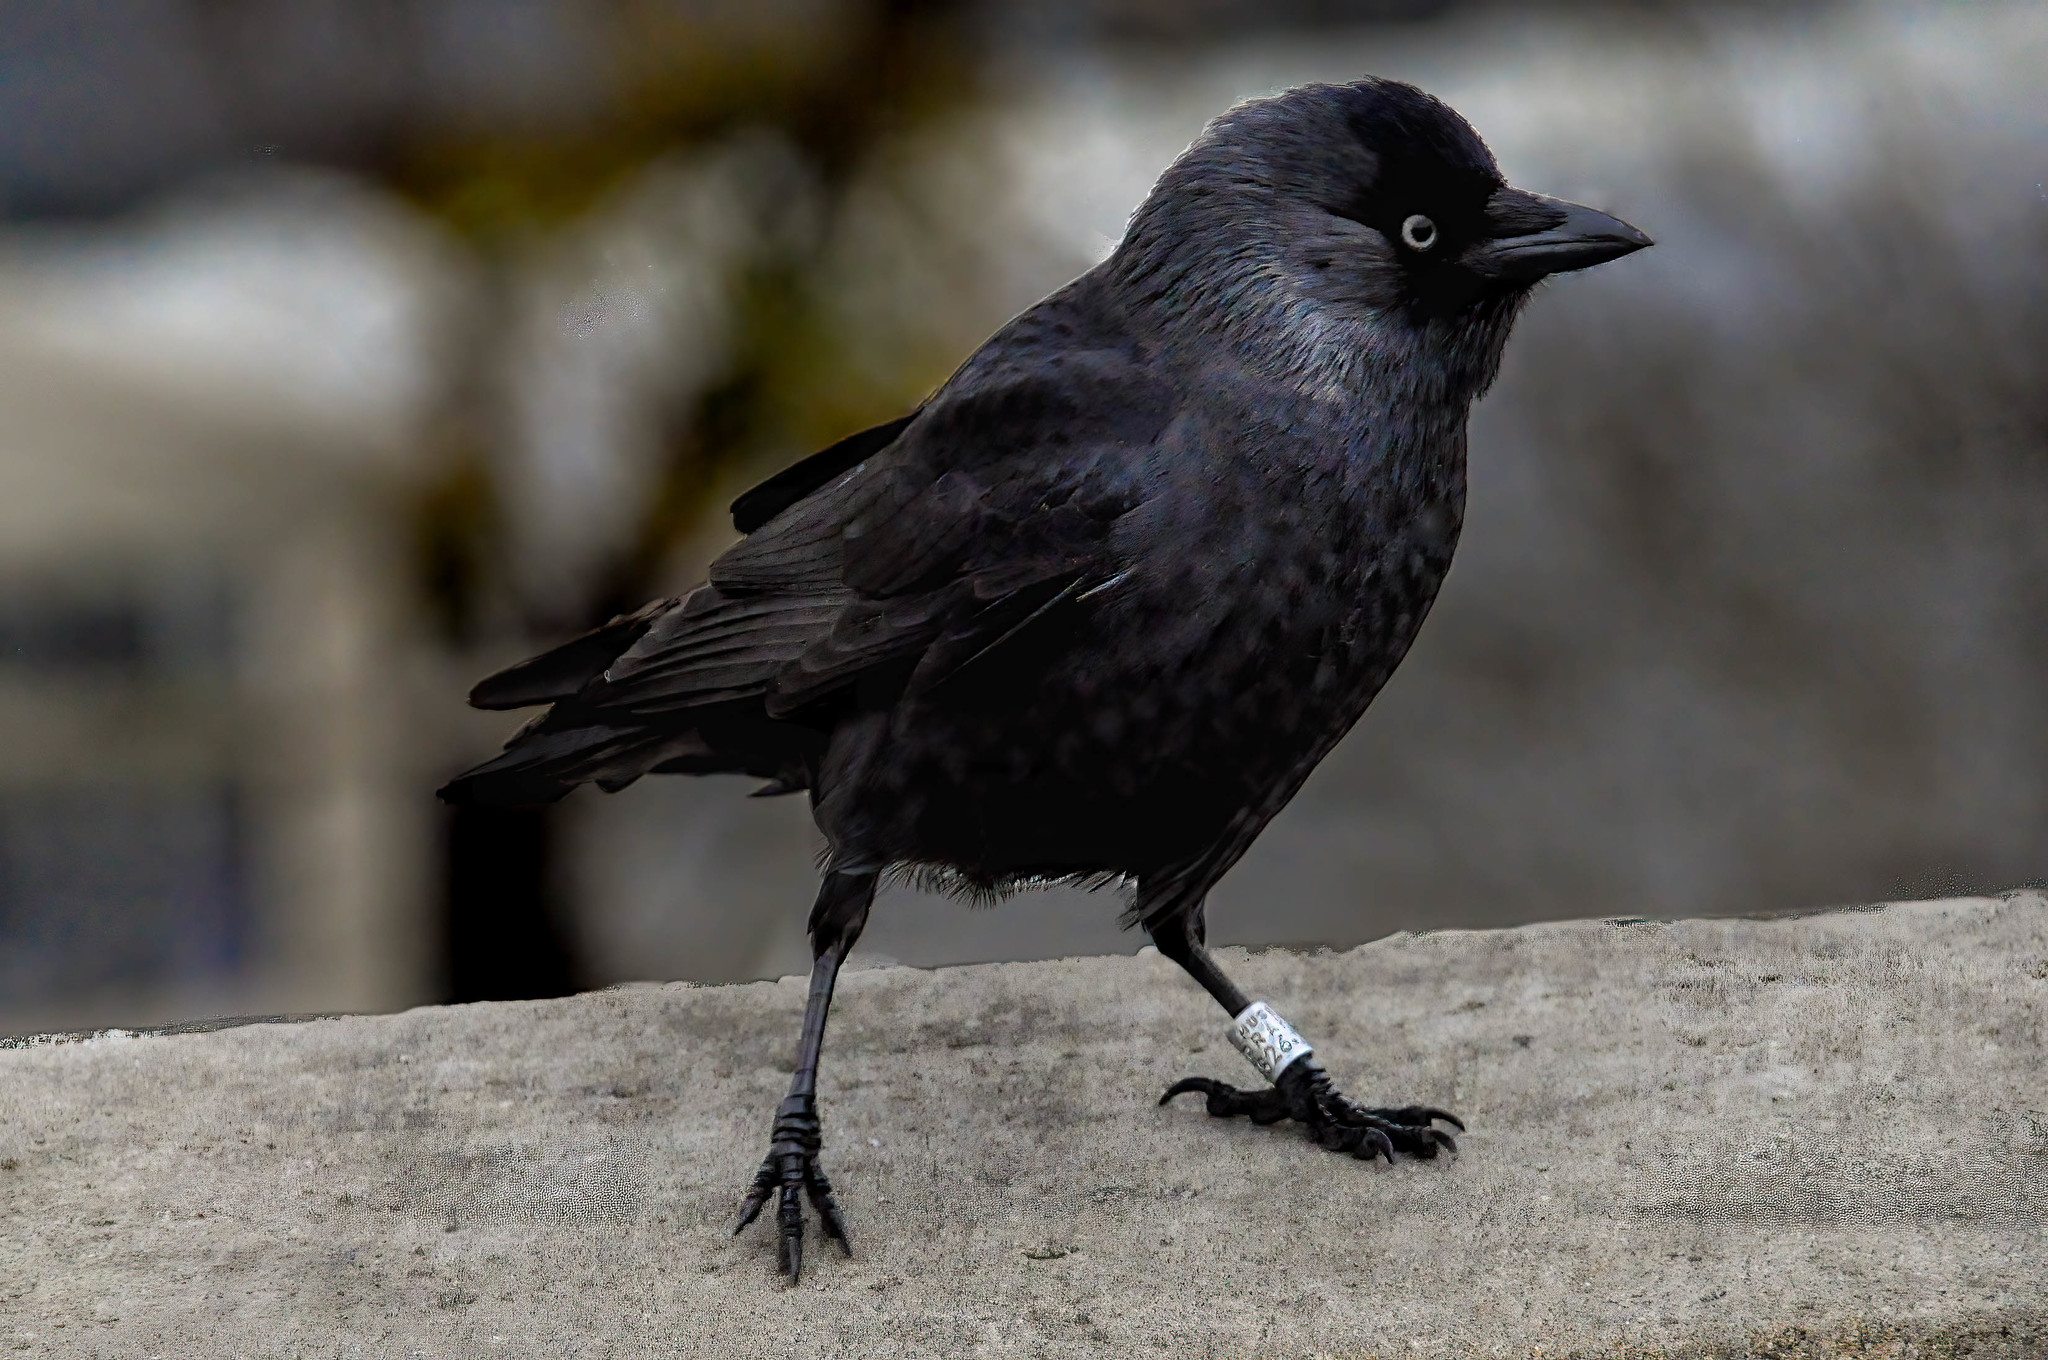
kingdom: Animalia
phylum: Chordata
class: Aves
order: Passeriformes
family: Corvidae
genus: Coloeus
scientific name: Coloeus monedula
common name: Western jackdaw
